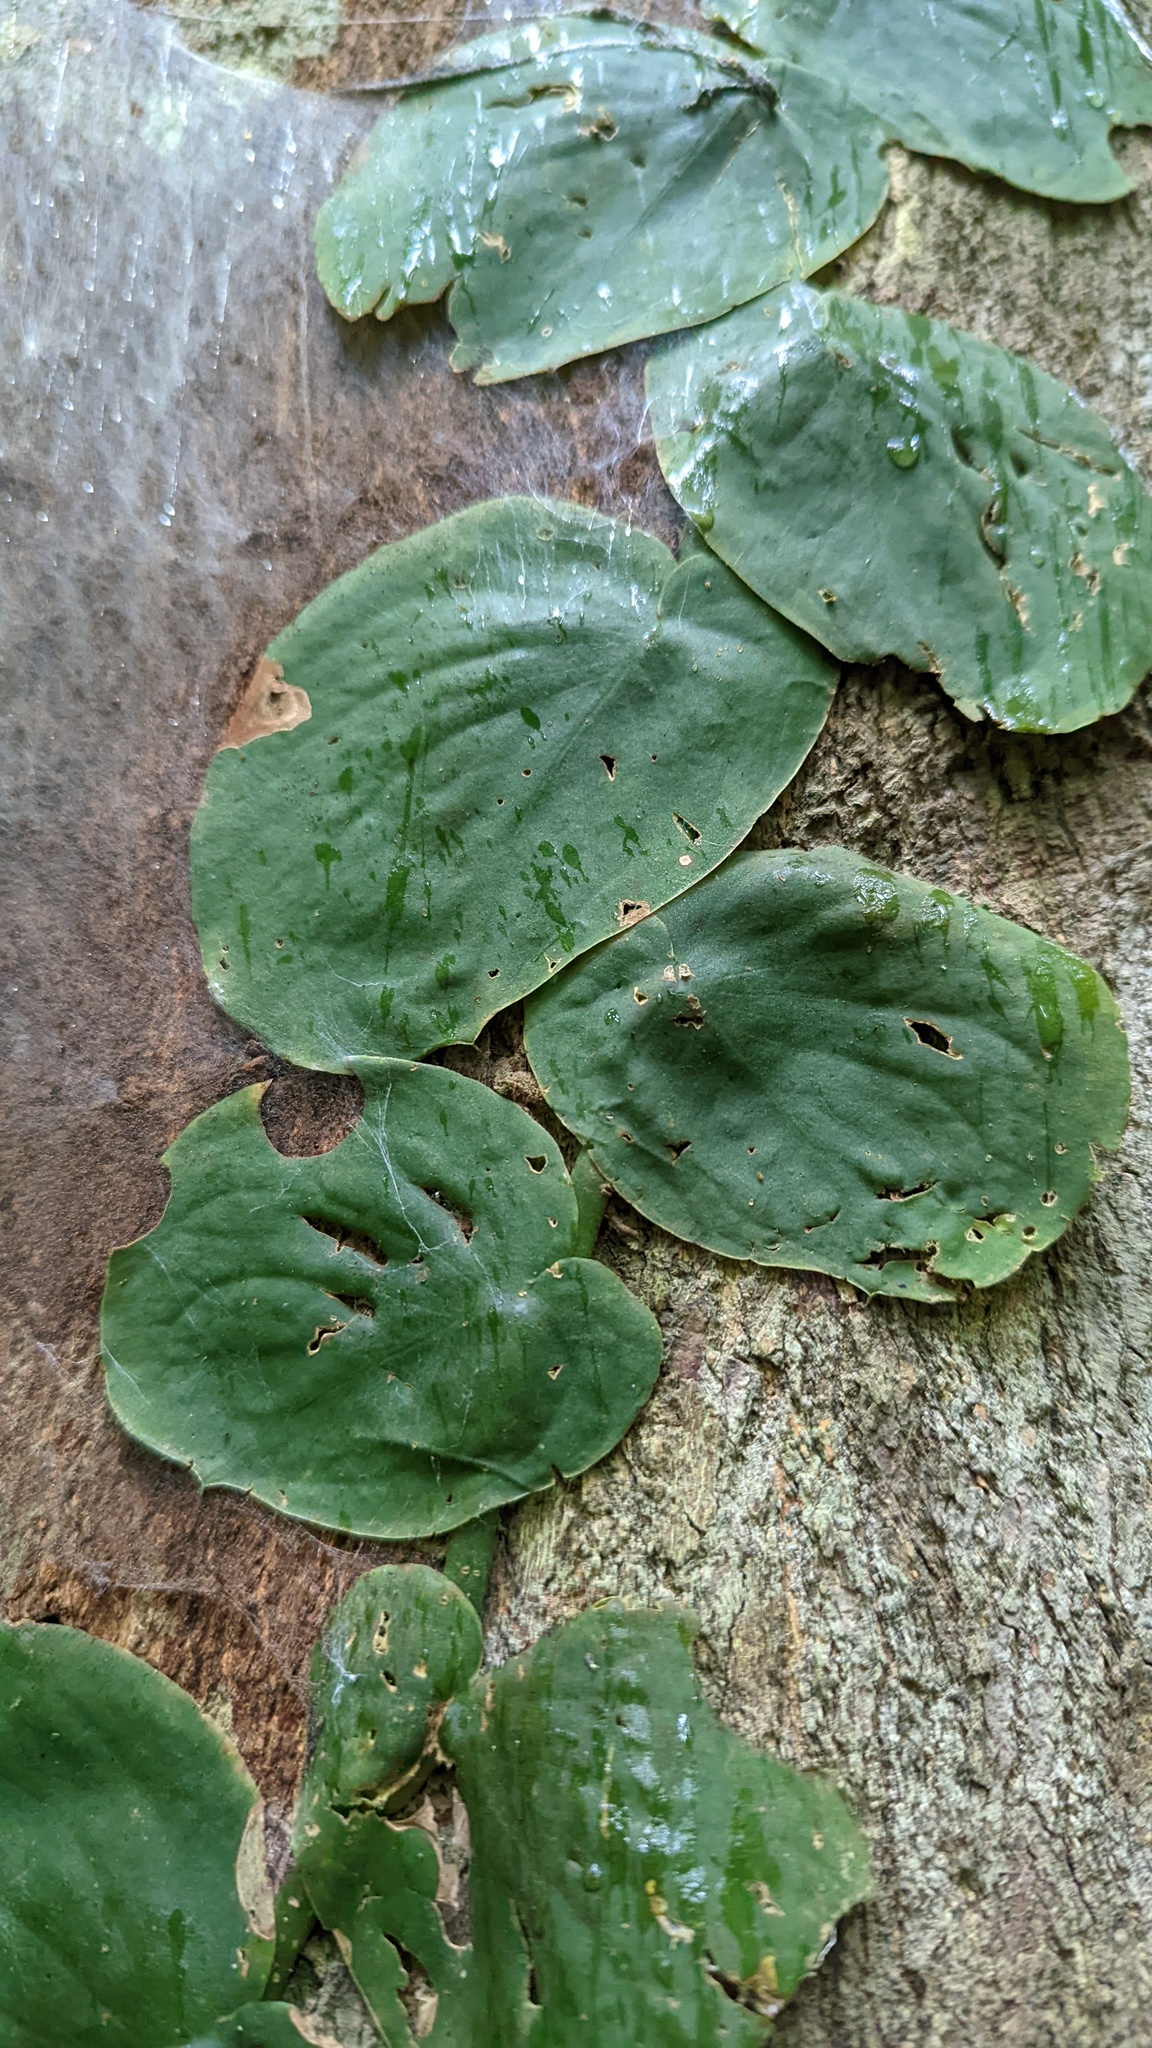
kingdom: Plantae
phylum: Tracheophyta
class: Liliopsida
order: Alismatales
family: Araceae
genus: Monstera
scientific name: Monstera tenuis
